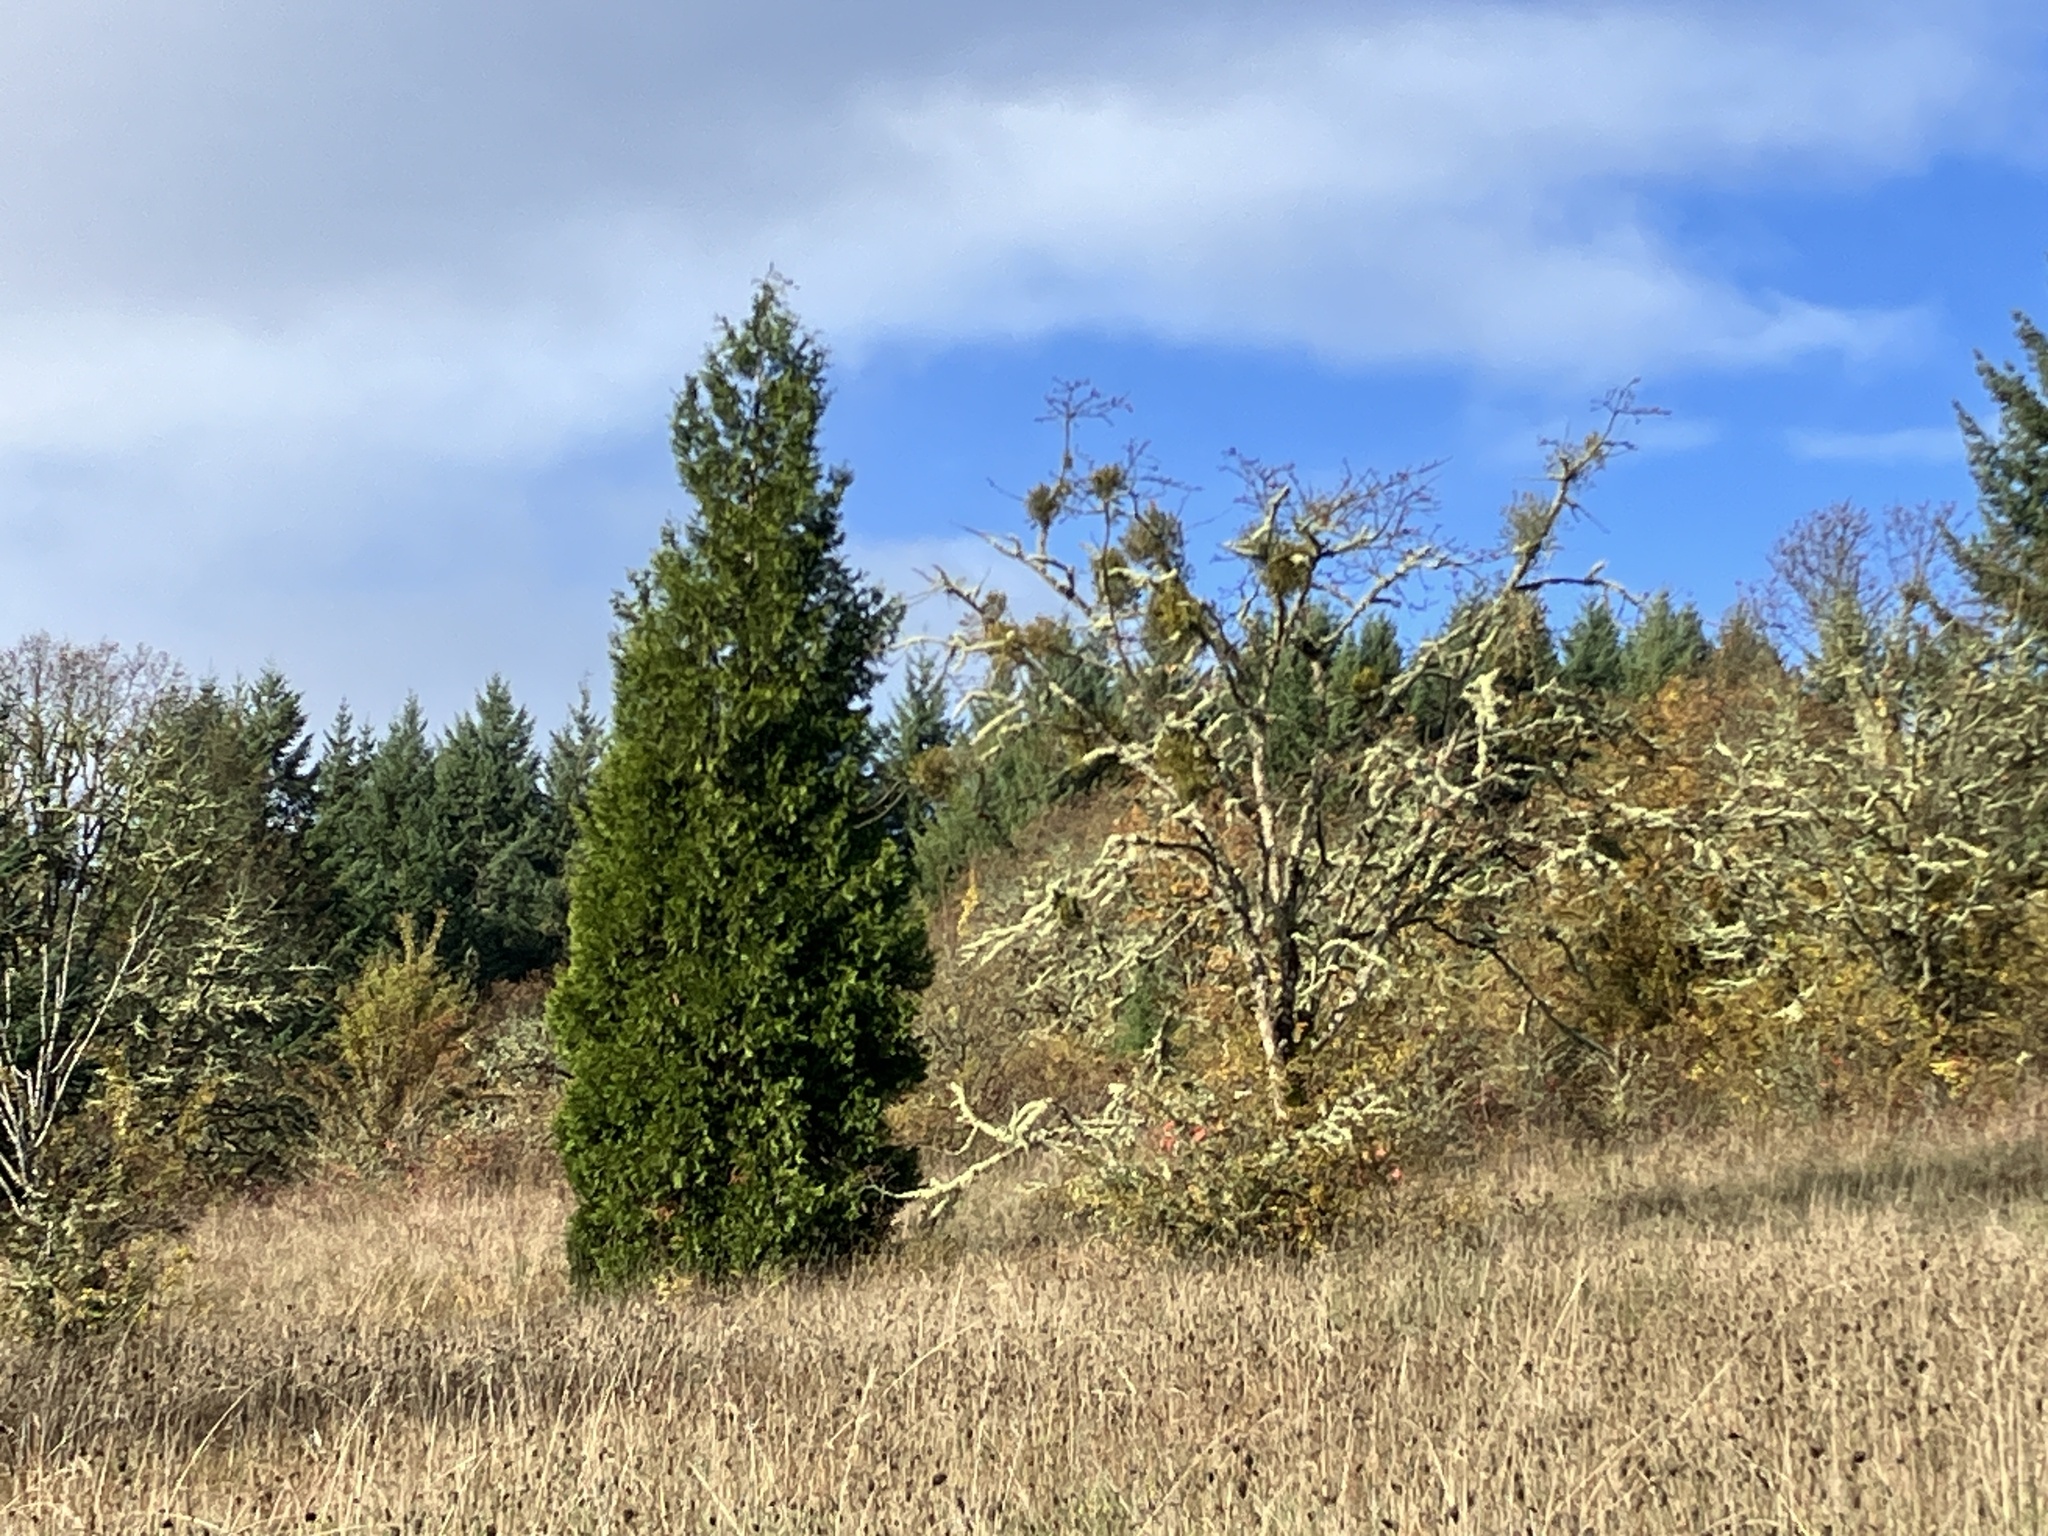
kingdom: Plantae
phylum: Tracheophyta
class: Pinopsida
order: Pinales
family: Cupressaceae
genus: Calocedrus
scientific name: Calocedrus decurrens
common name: Californian incense-cedar
